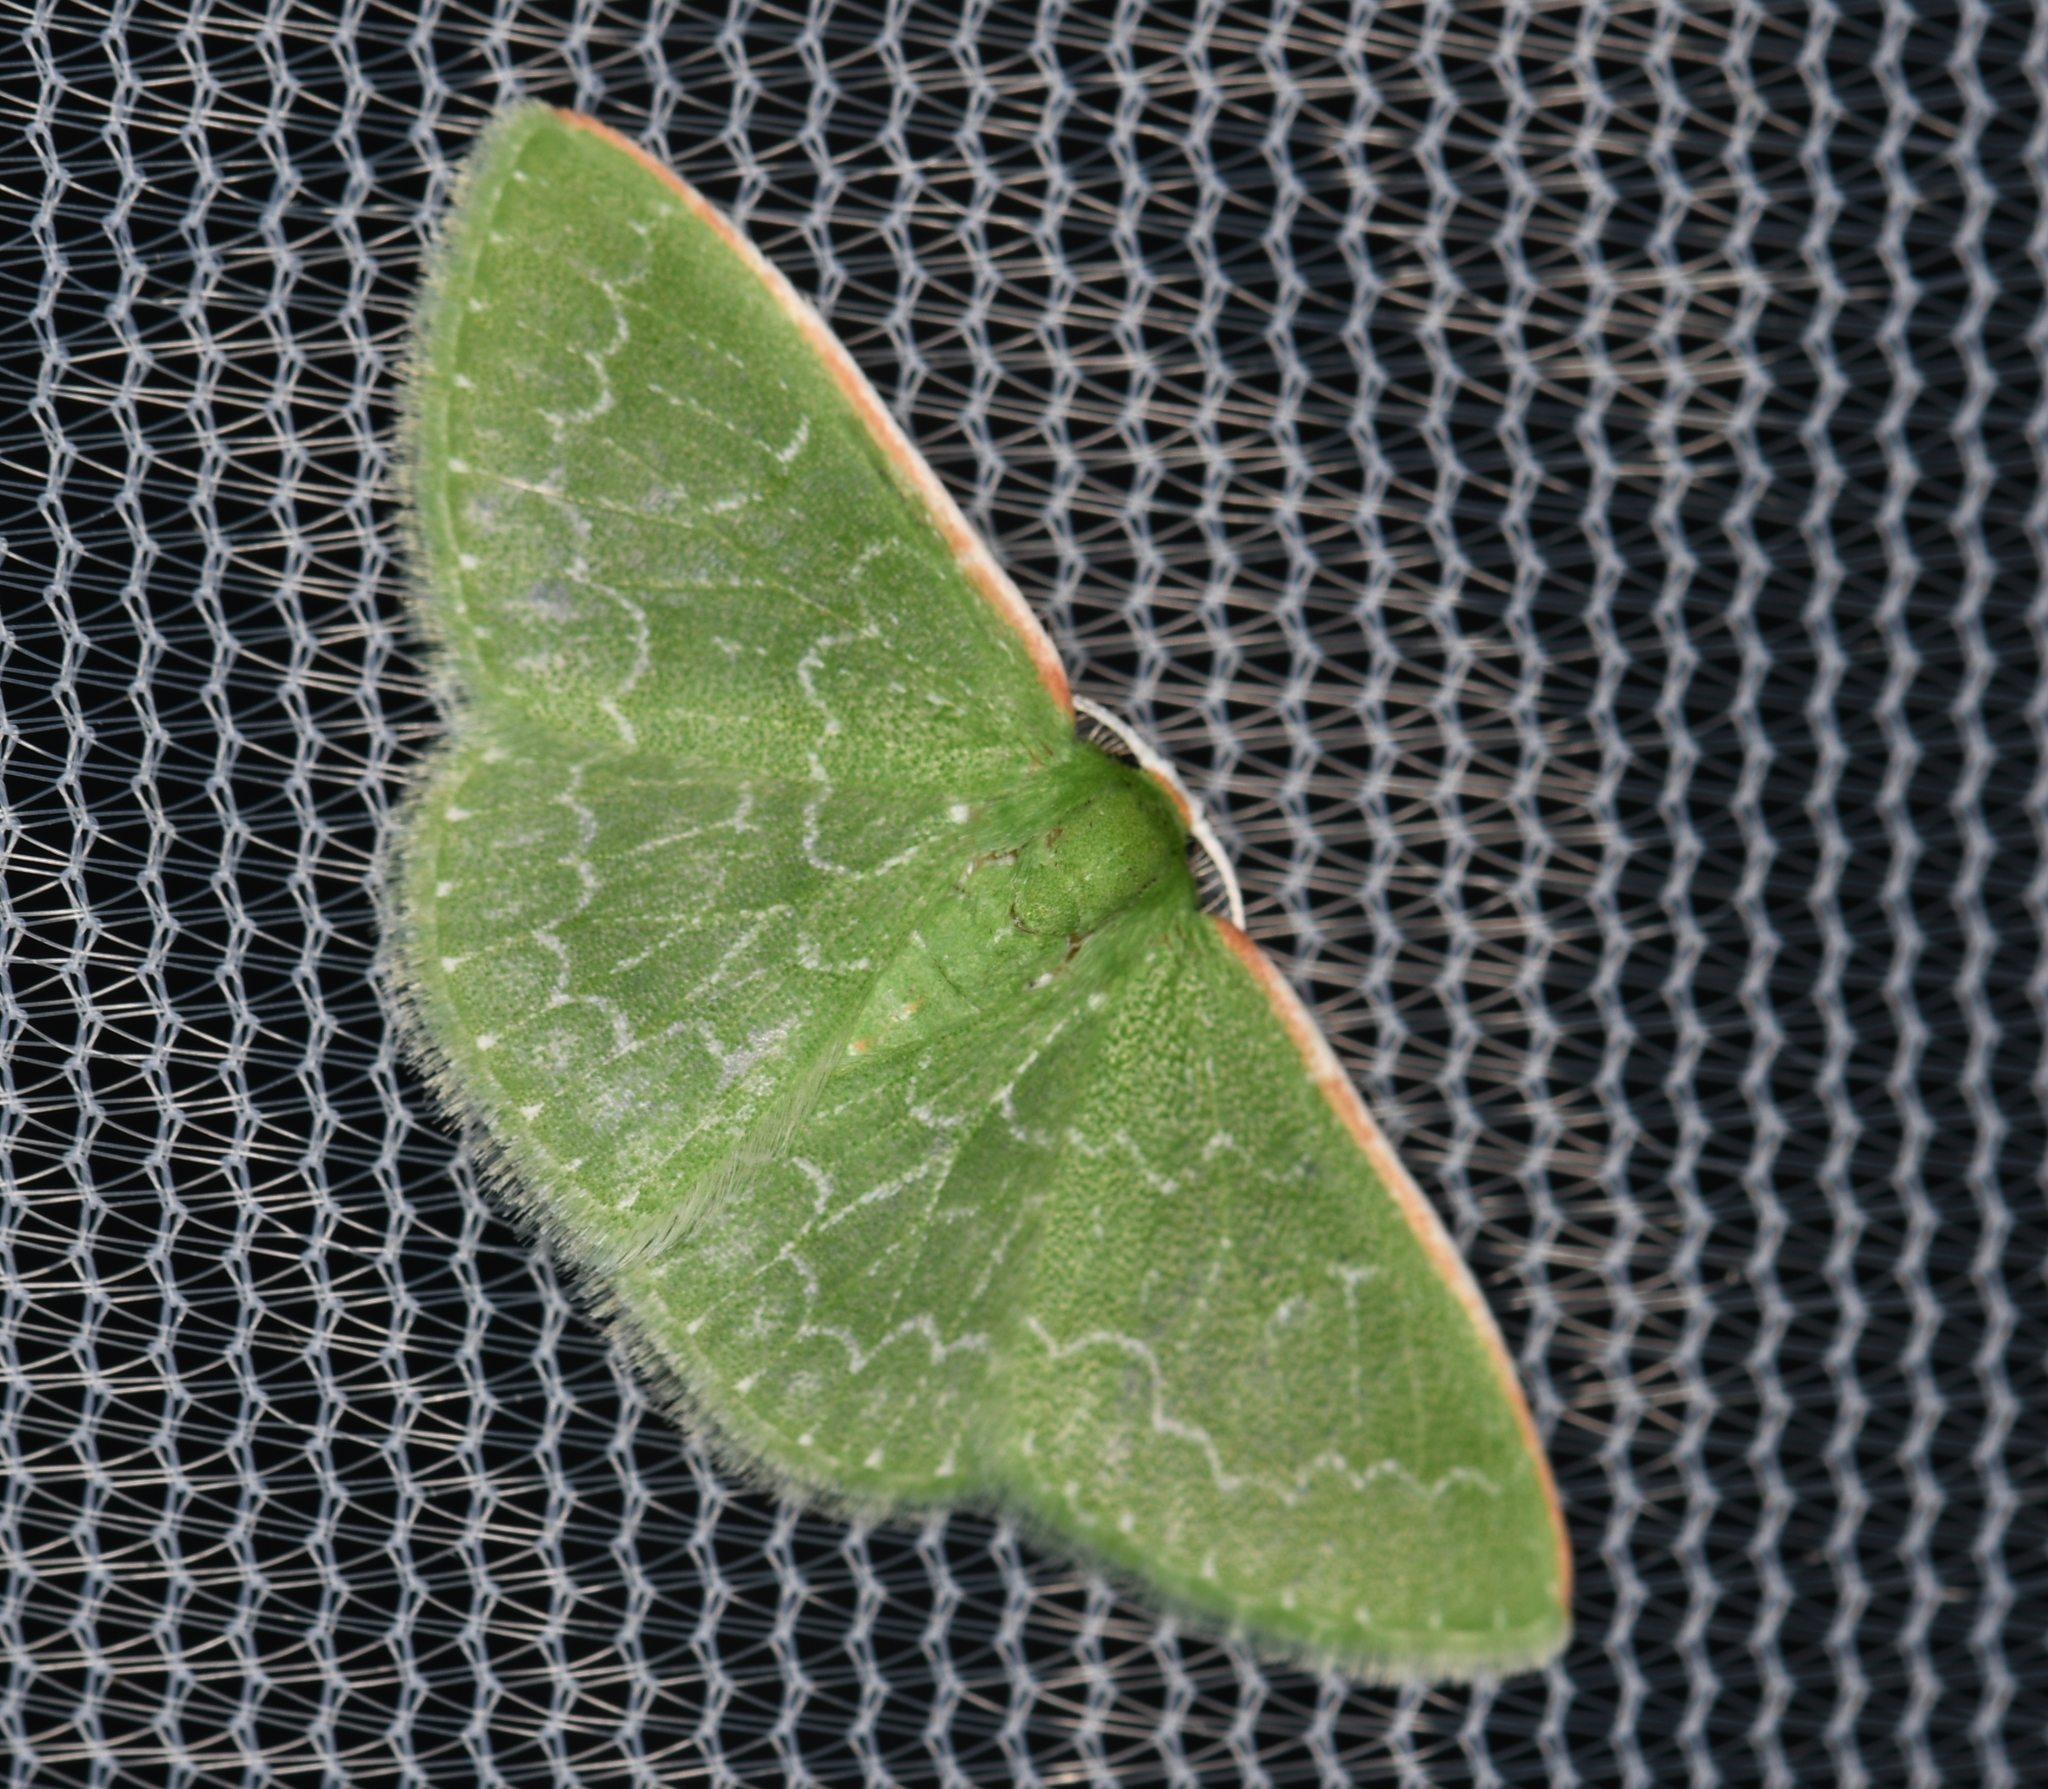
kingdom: Animalia
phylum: Arthropoda
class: Insecta
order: Lepidoptera
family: Geometridae
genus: Synchlora
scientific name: Synchlora frondaria
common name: Southern emerald
